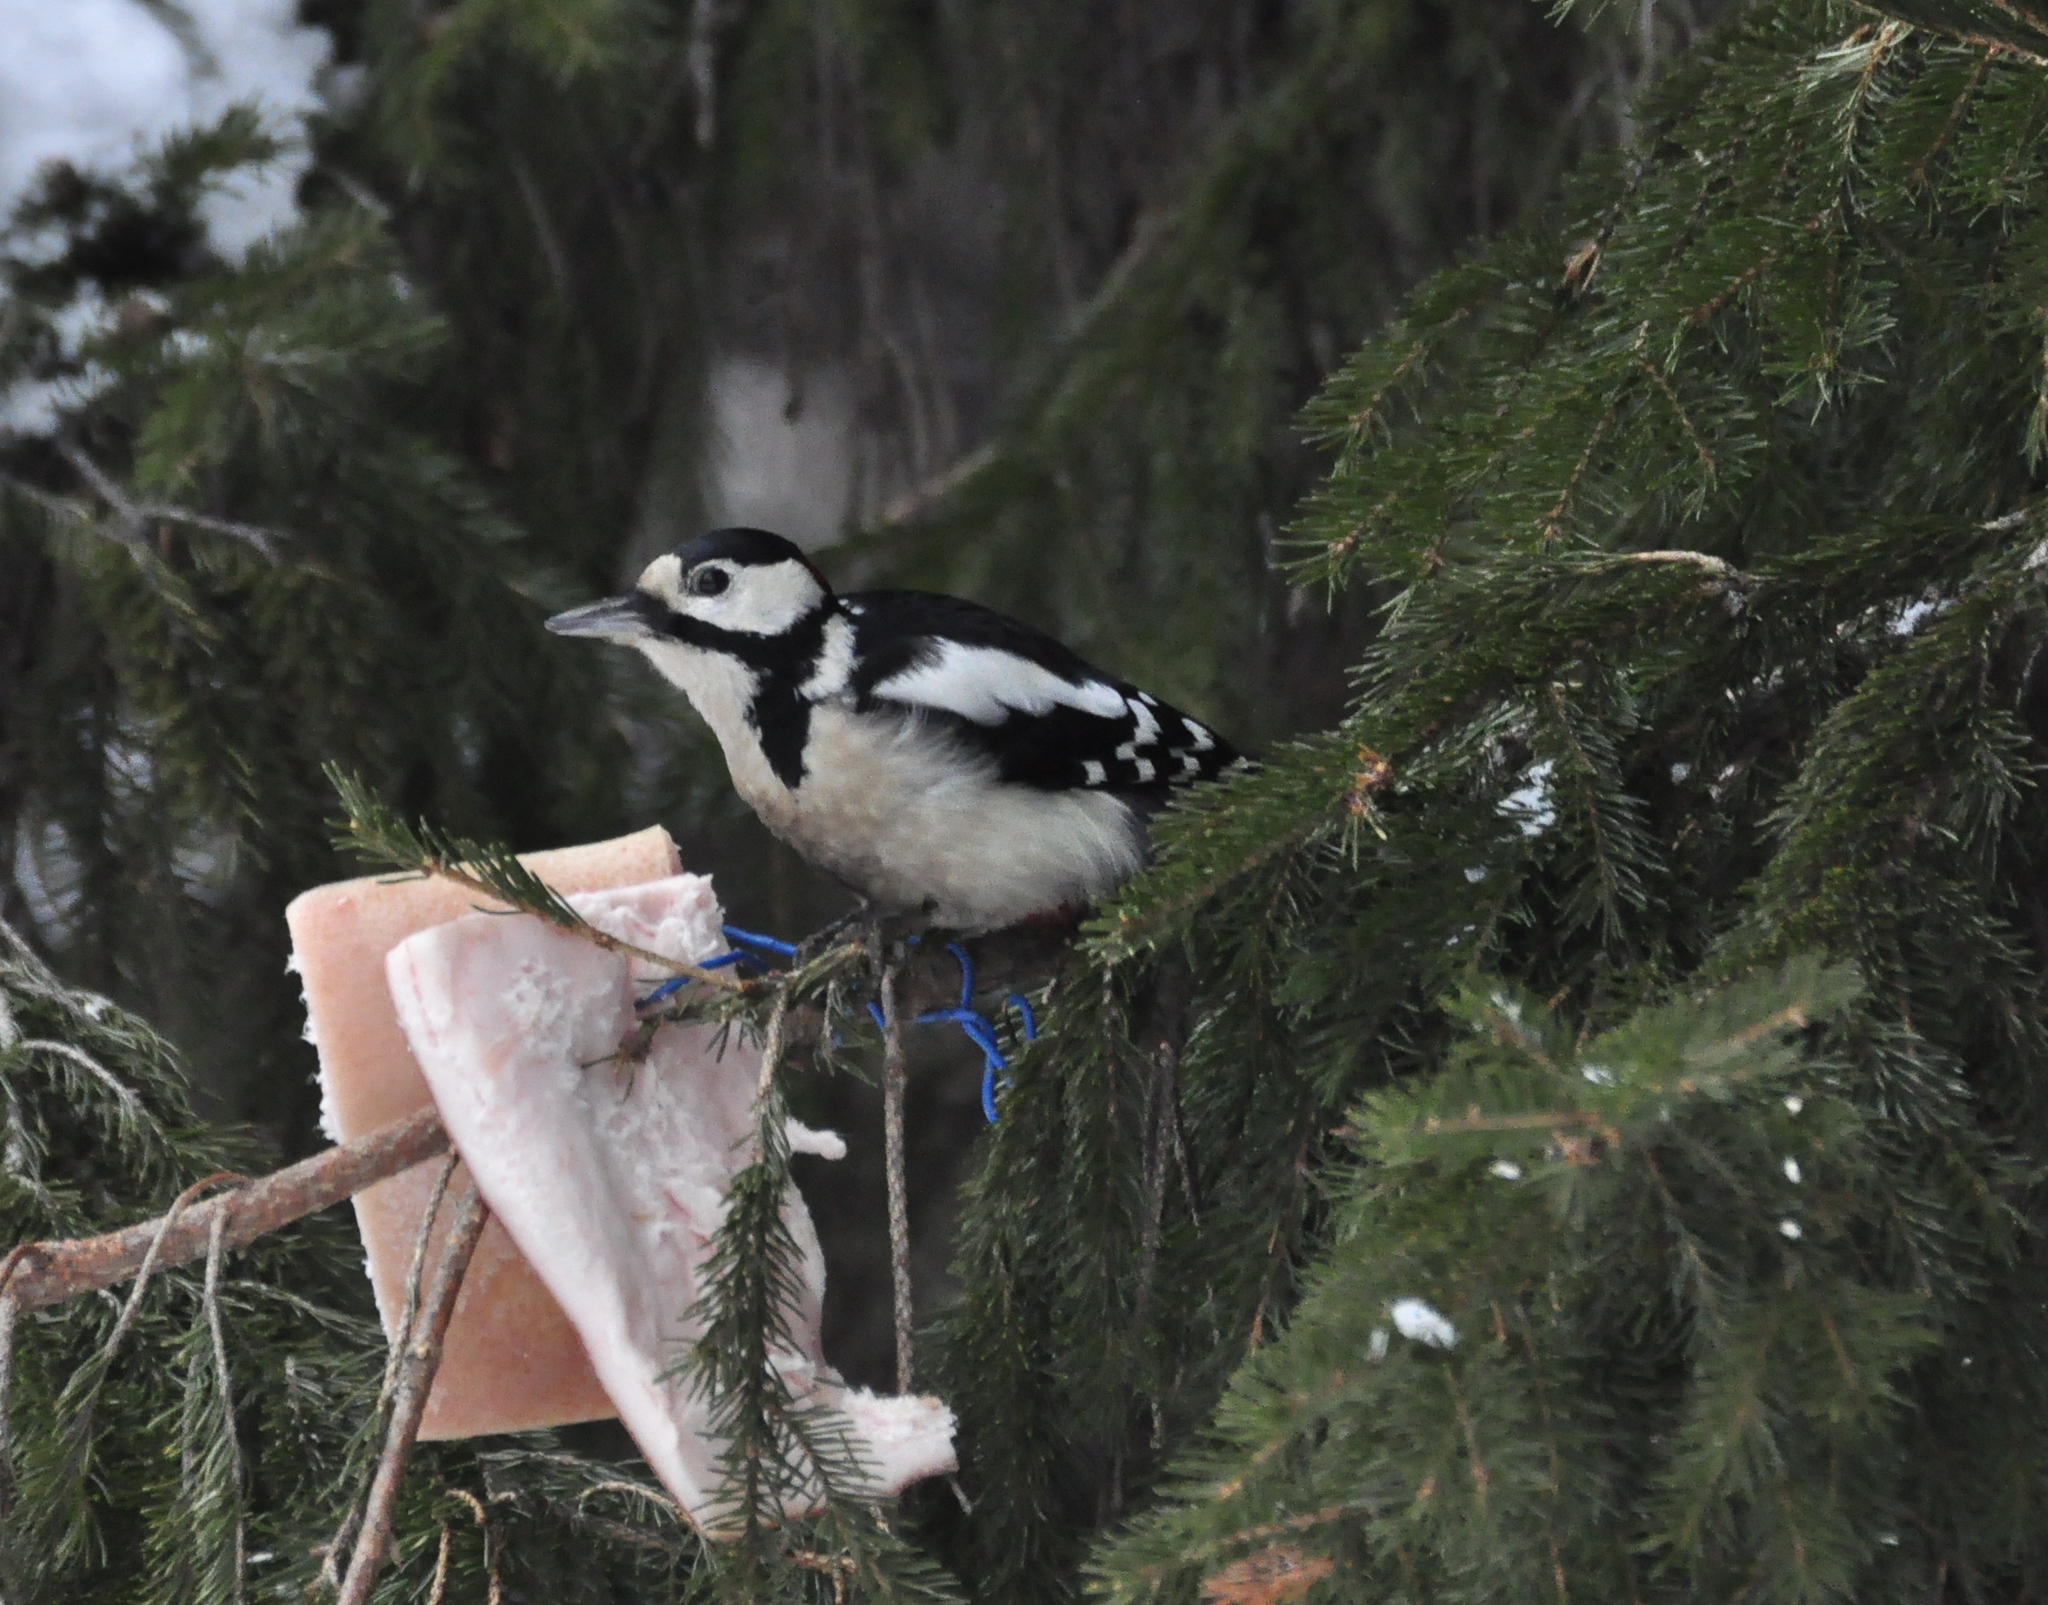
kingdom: Animalia
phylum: Chordata
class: Aves
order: Piciformes
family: Picidae
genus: Dendrocopos
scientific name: Dendrocopos major
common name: Great spotted woodpecker
